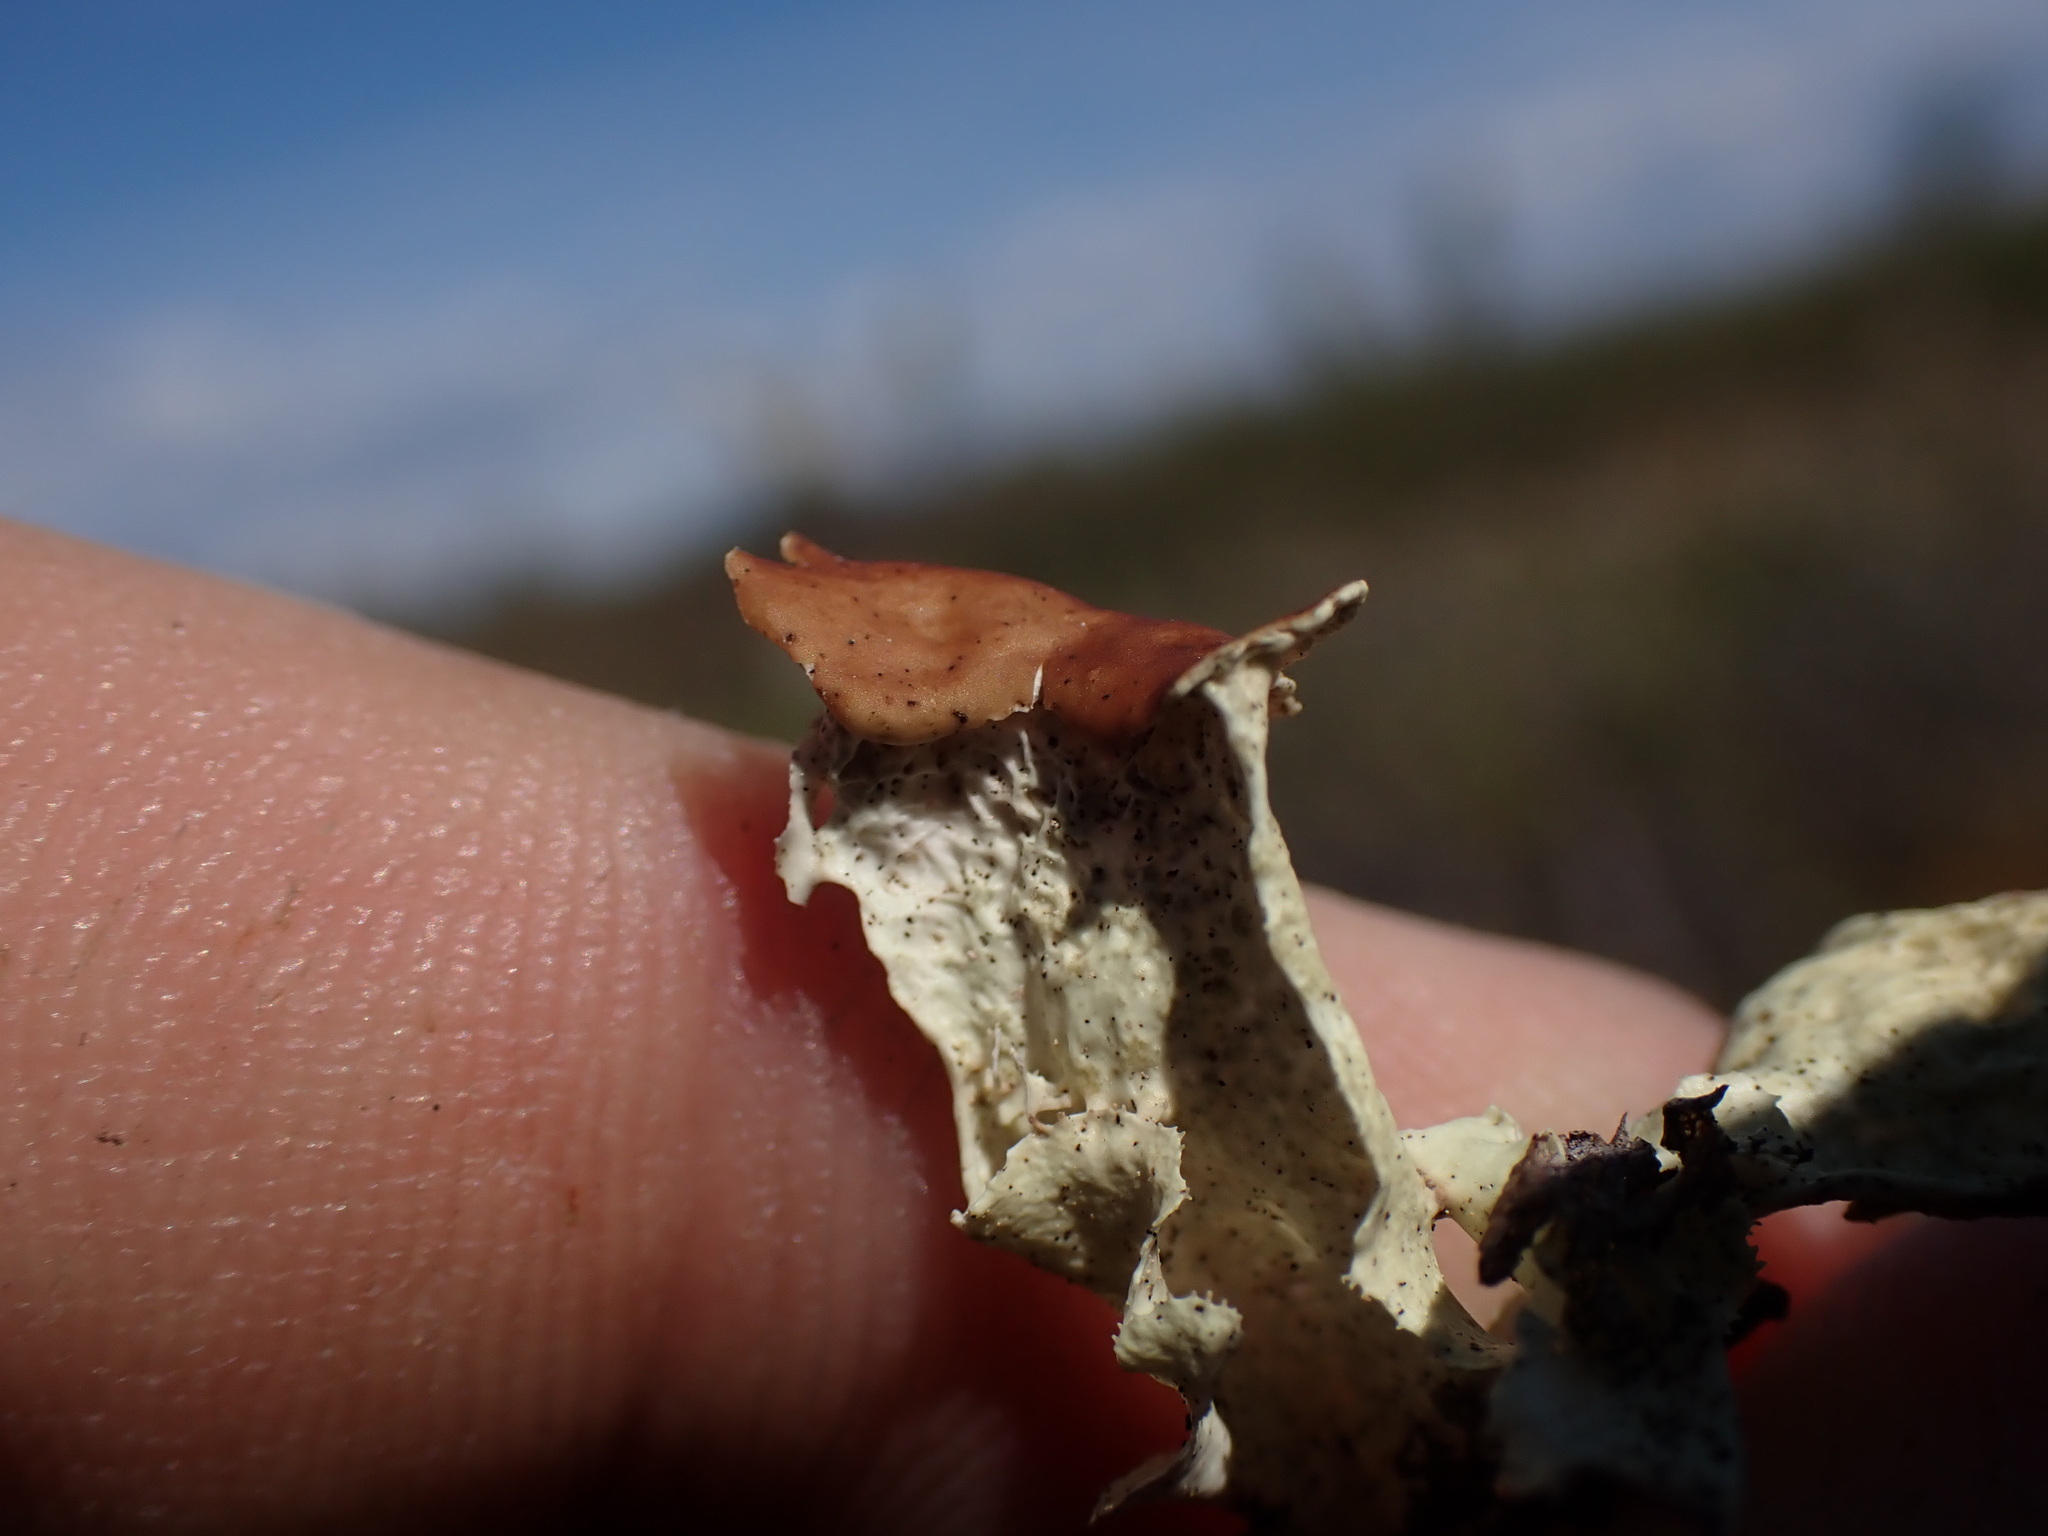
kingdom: Fungi
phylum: Ascomycota
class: Lecanoromycetes
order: Lecanorales
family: Parmeliaceae
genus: Nephromopsis
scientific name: Nephromopsis nivalis
